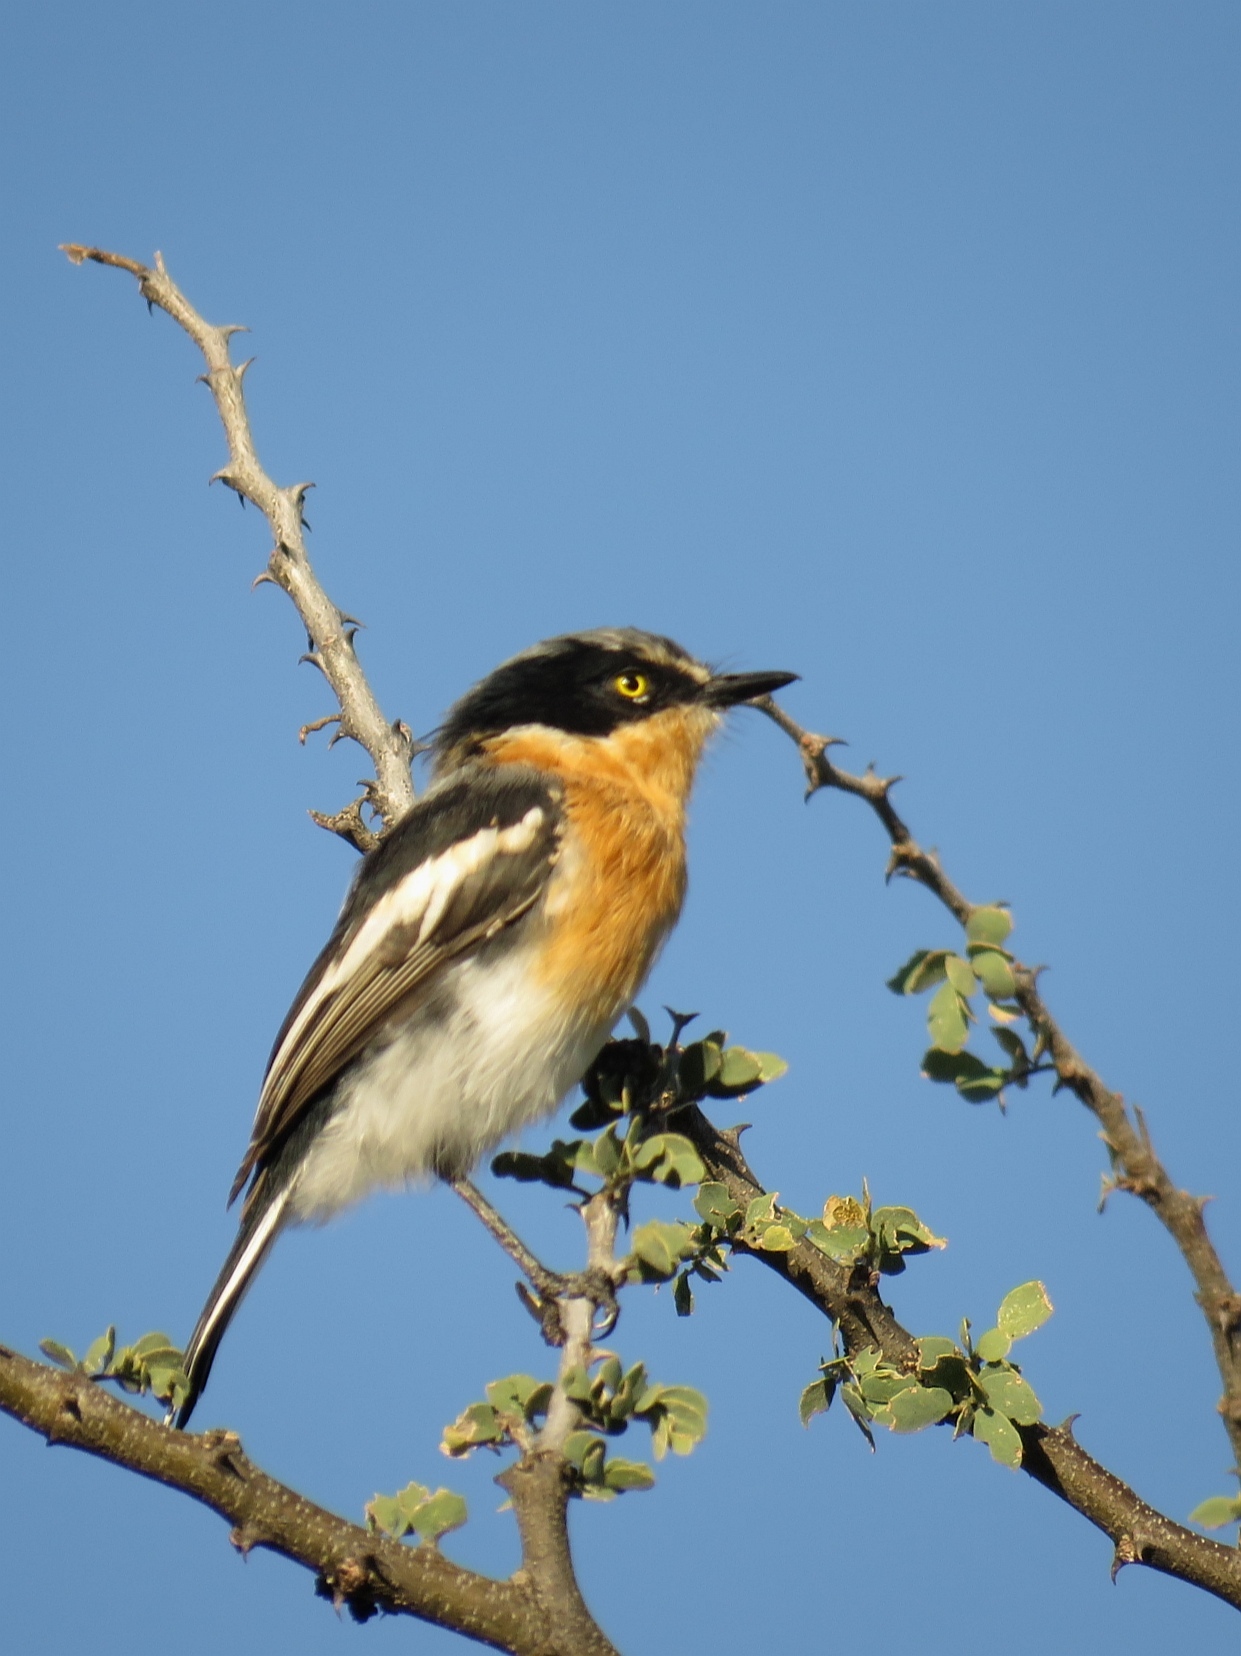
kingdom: Animalia
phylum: Chordata
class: Aves
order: Passeriformes
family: Platysteiridae
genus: Batis
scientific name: Batis pririt
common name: Pririt batis
